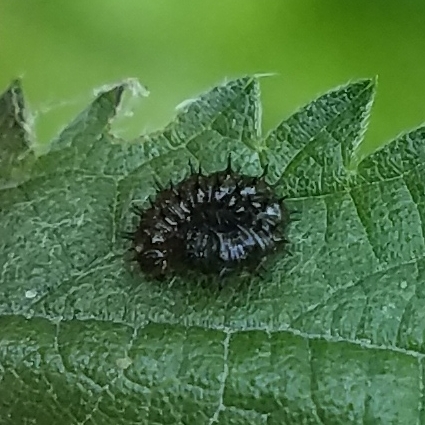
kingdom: Animalia
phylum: Arthropoda
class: Insecta
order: Lepidoptera
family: Nymphalidae
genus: Vanessa
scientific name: Vanessa atalanta
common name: Red admiral
